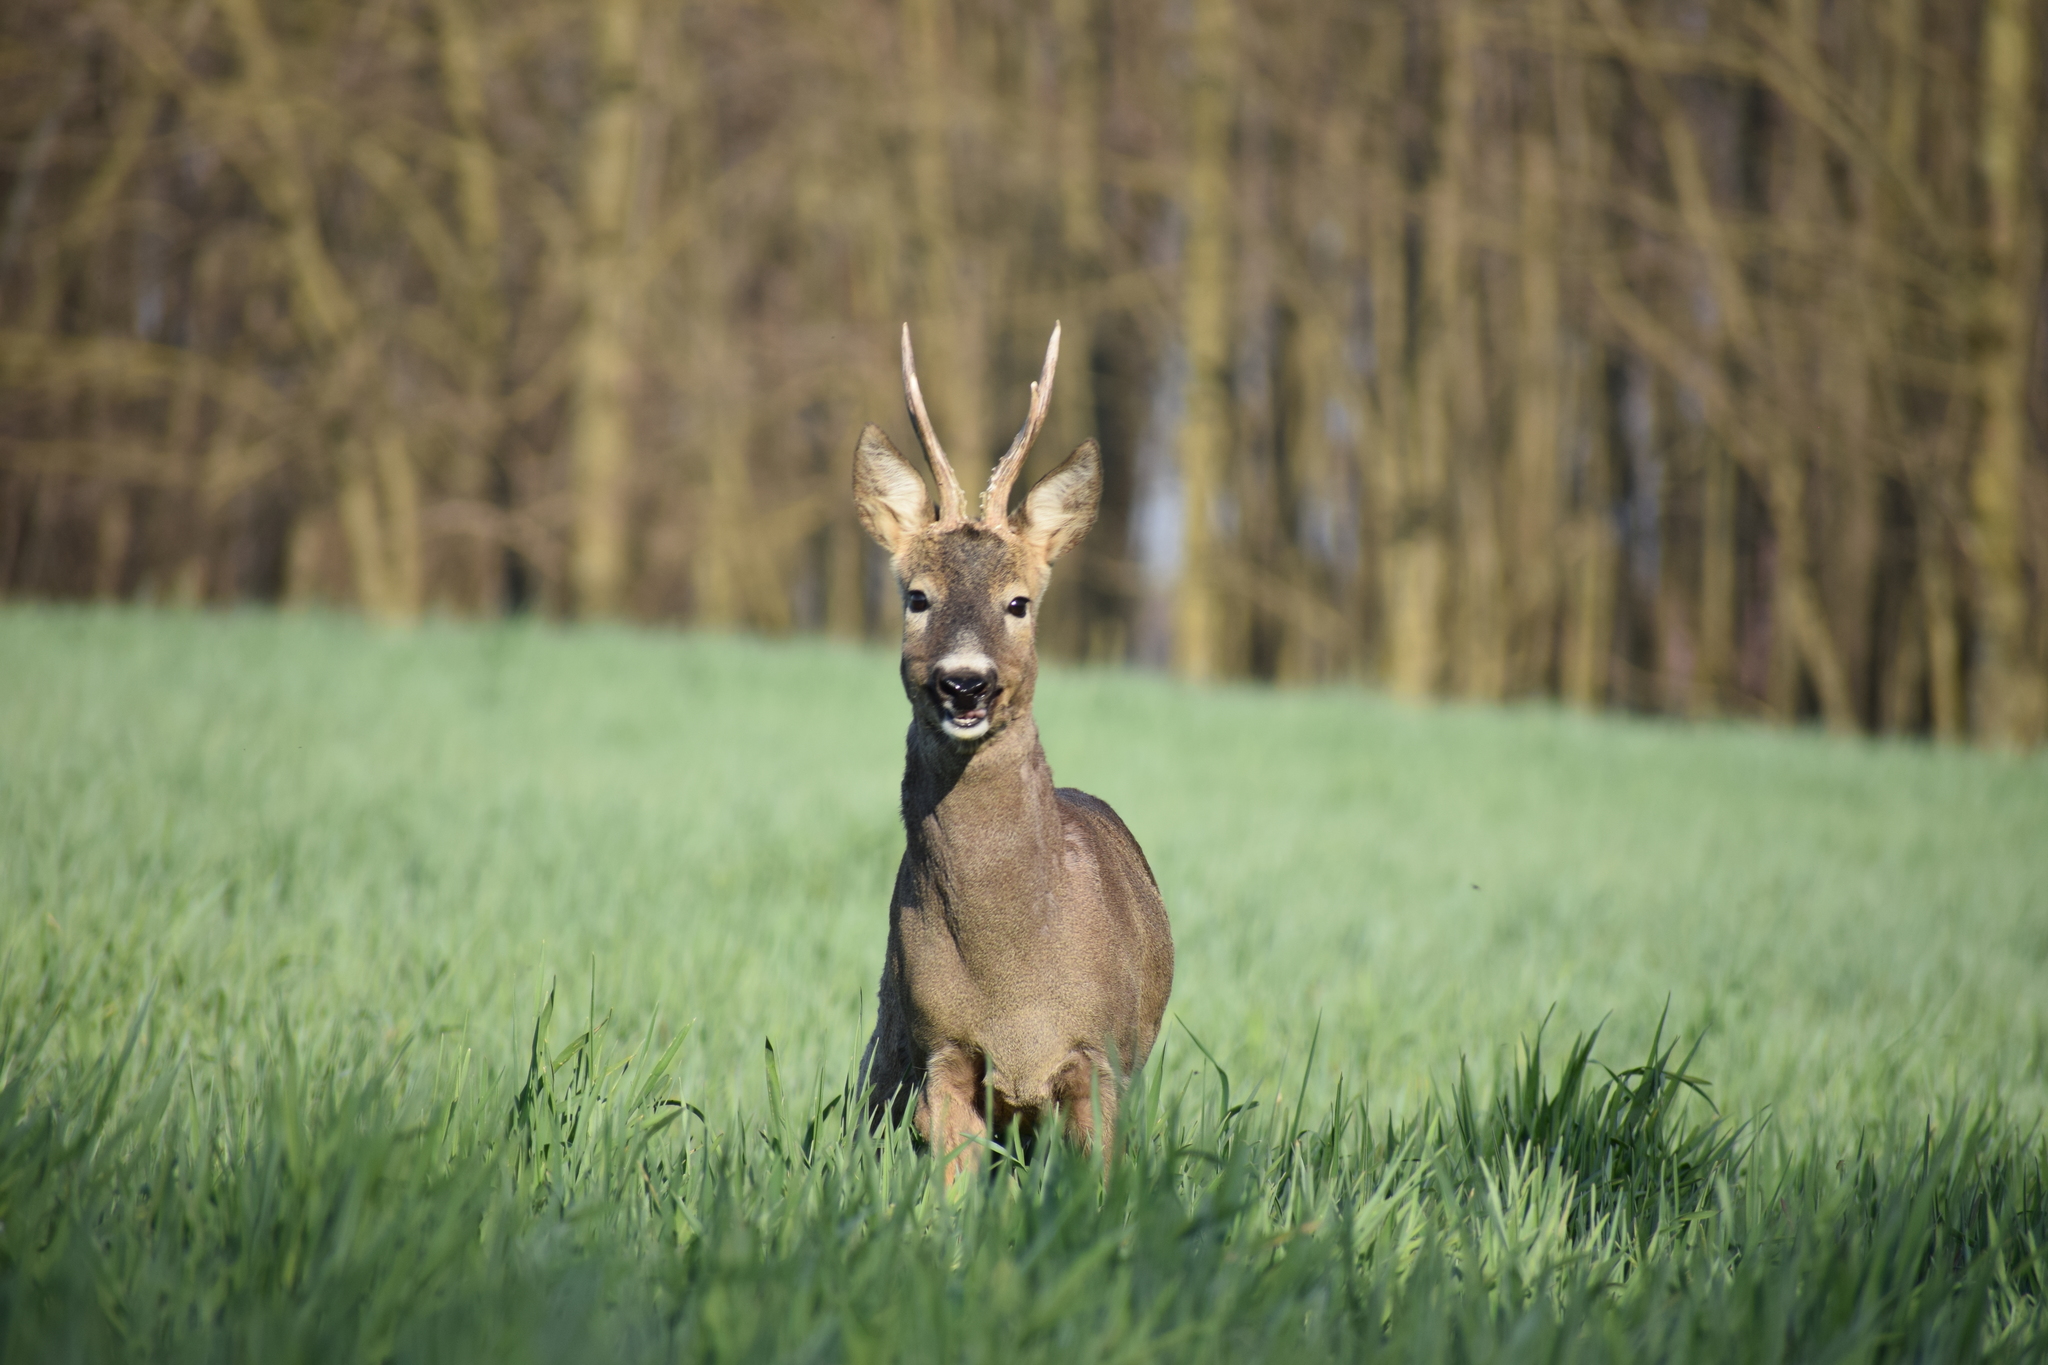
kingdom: Animalia
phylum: Chordata
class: Mammalia
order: Artiodactyla
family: Cervidae
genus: Capreolus
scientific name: Capreolus capreolus
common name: Western roe deer
